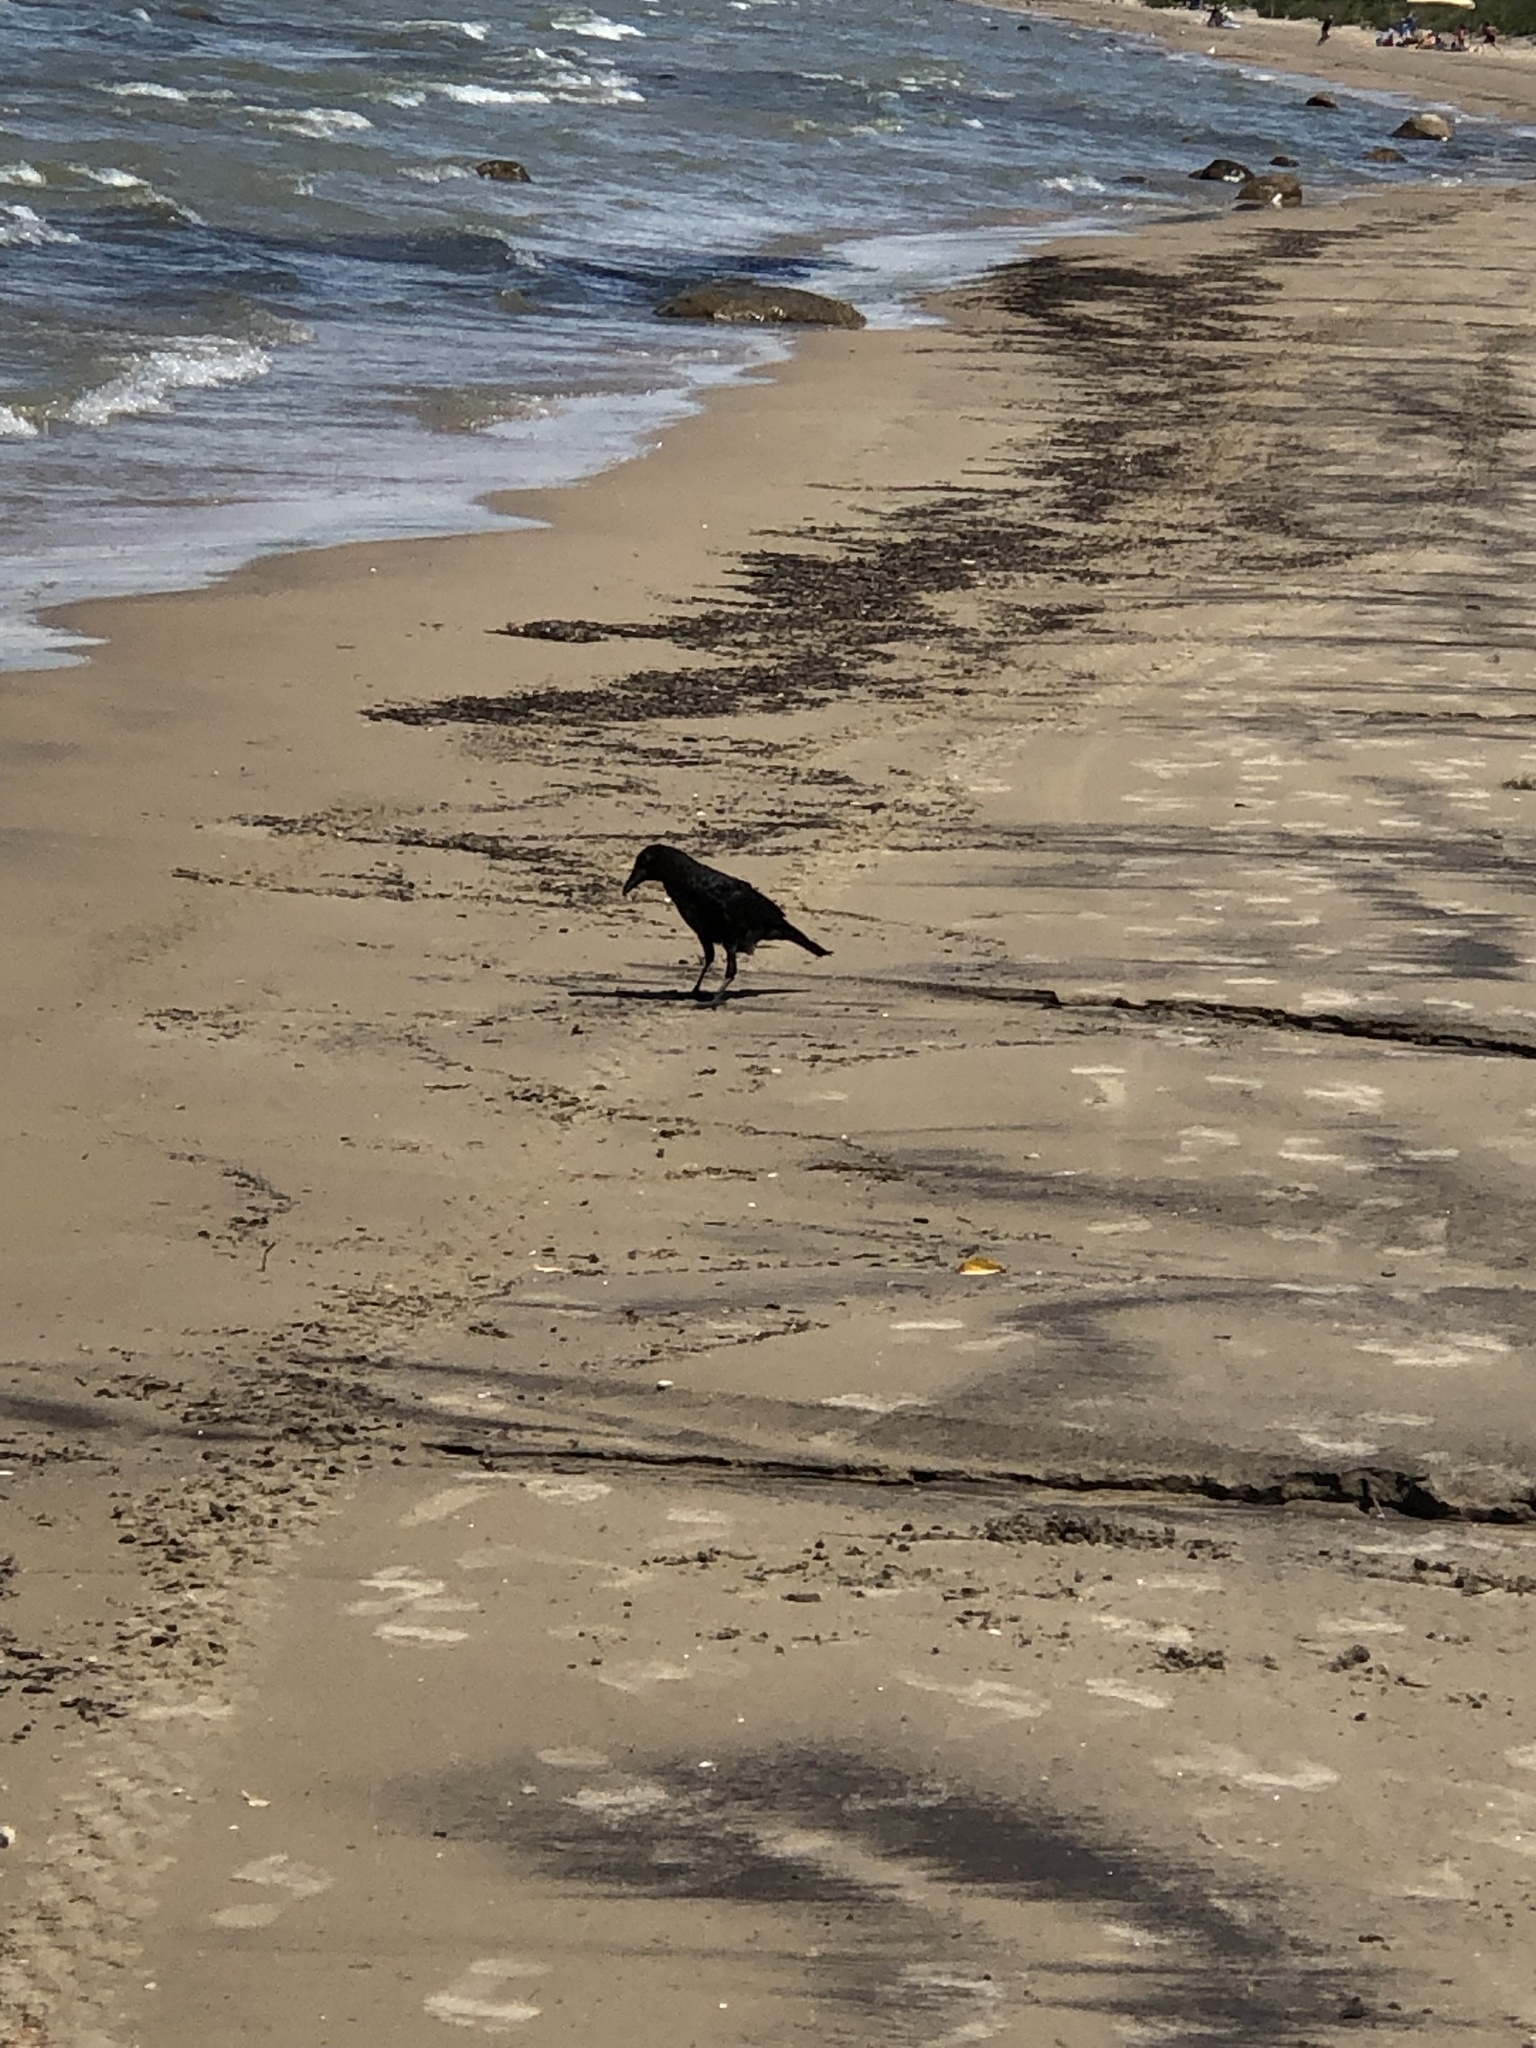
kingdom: Animalia
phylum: Chordata
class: Aves
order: Passeriformes
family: Corvidae
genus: Corvus
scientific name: Corvus brachyrhynchos
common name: American crow
